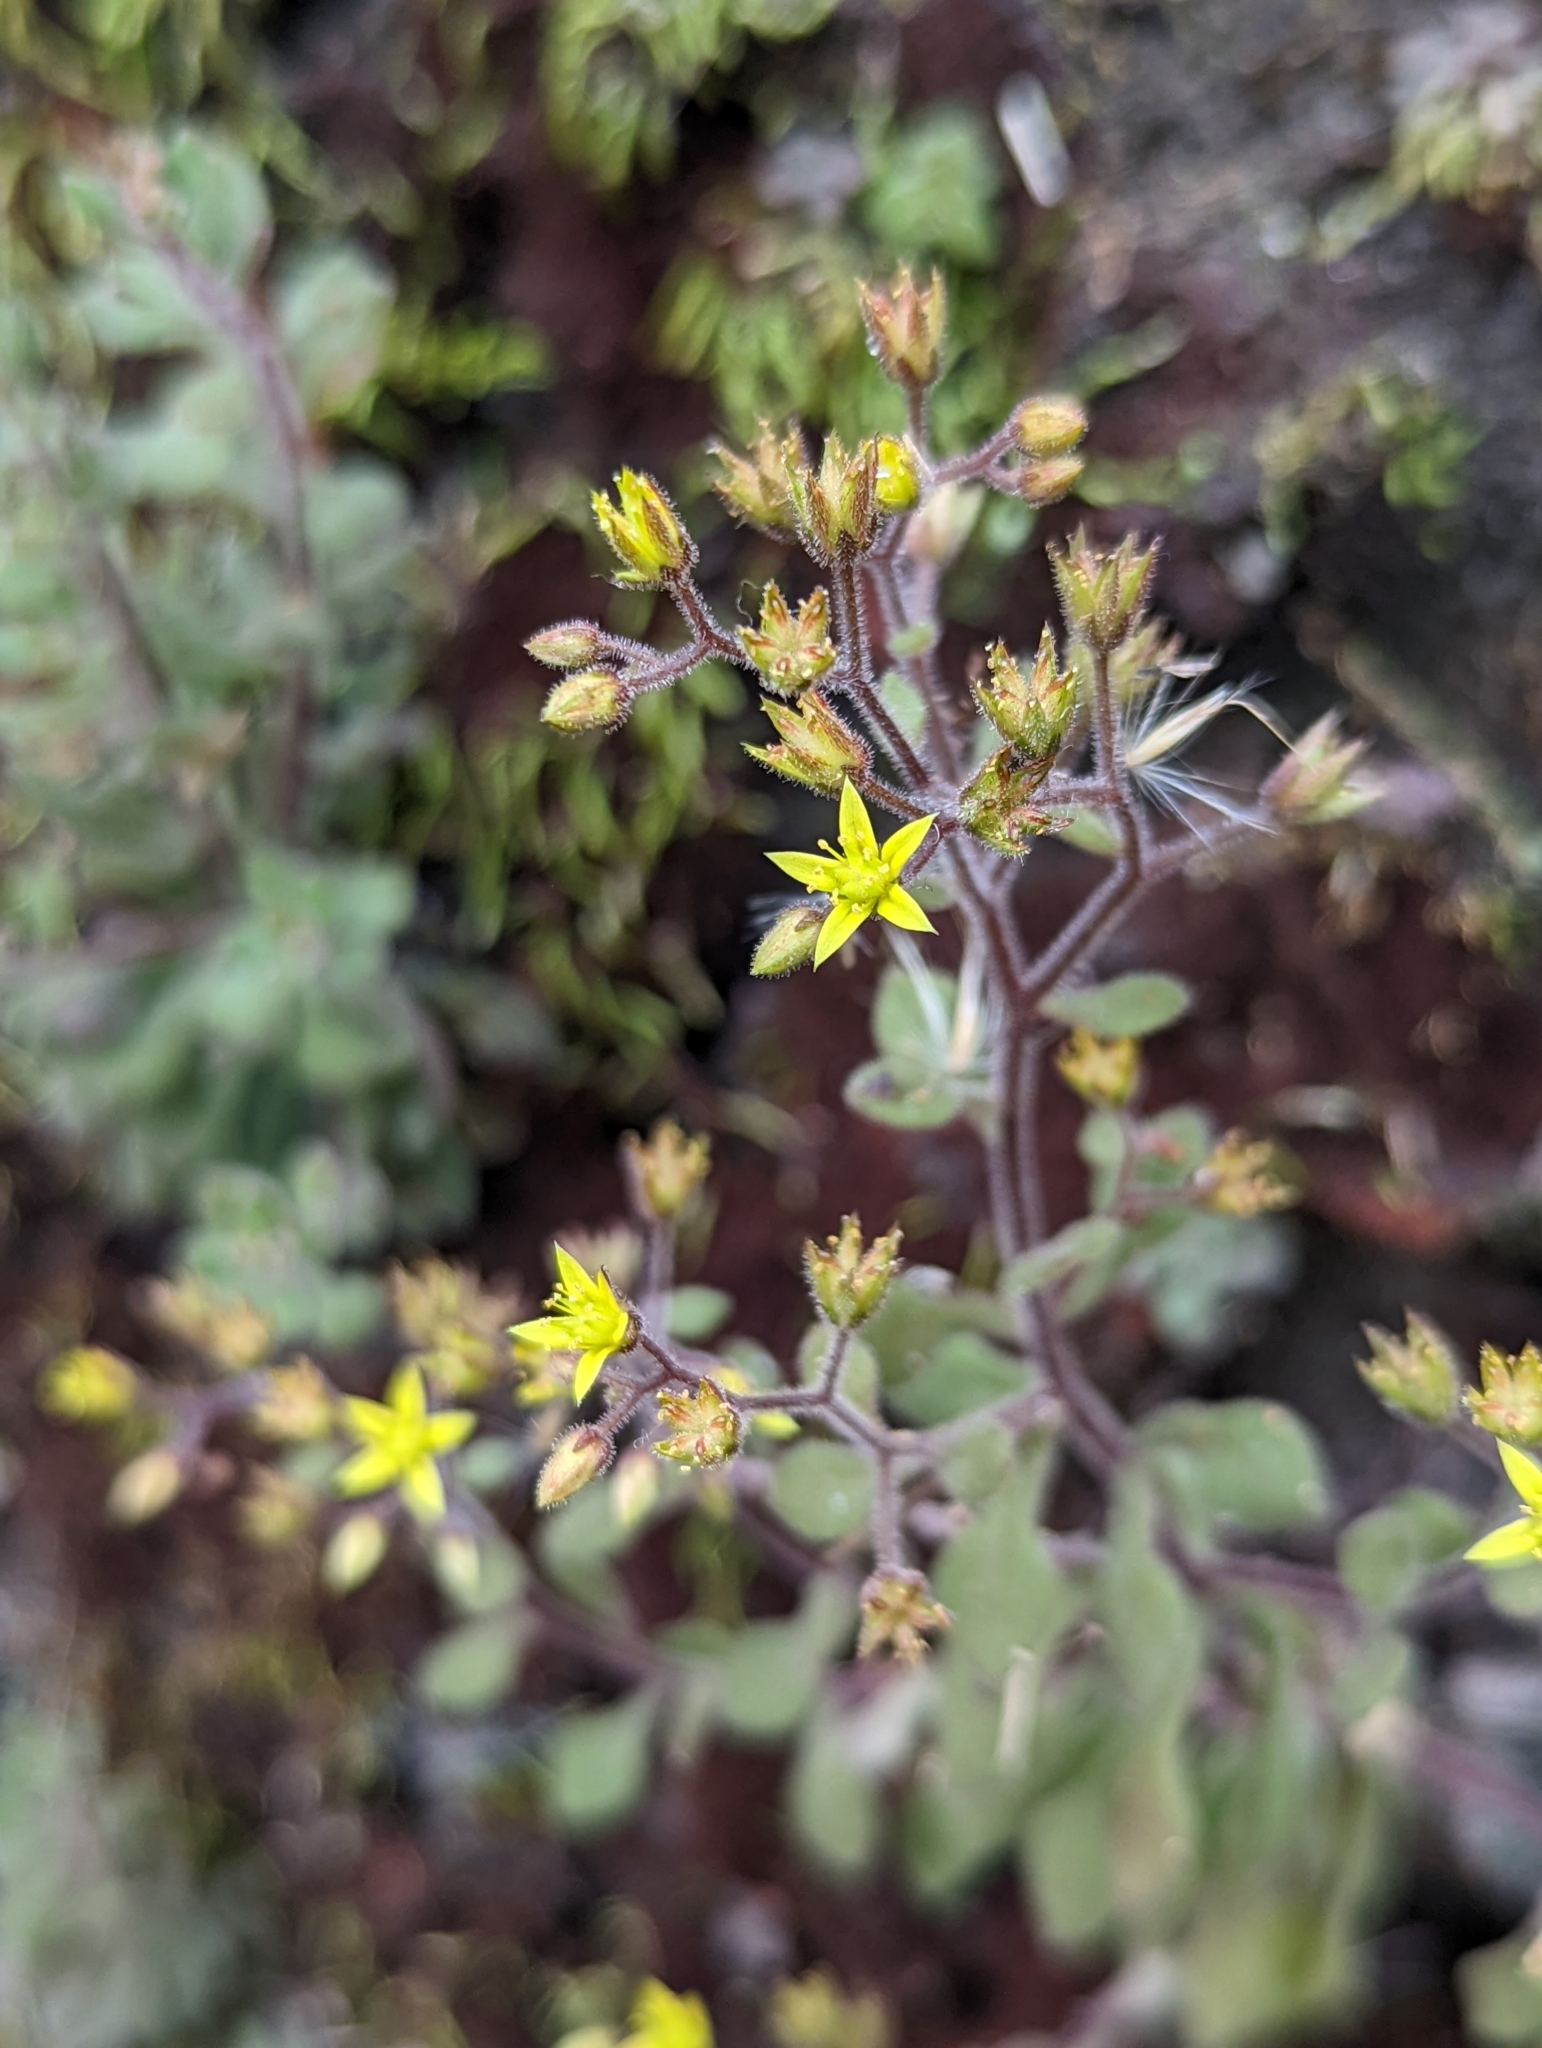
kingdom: Plantae
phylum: Tracheophyta
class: Magnoliopsida
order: Saxifragales
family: Crassulaceae
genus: Sedum
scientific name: Sedum stellariifolium
